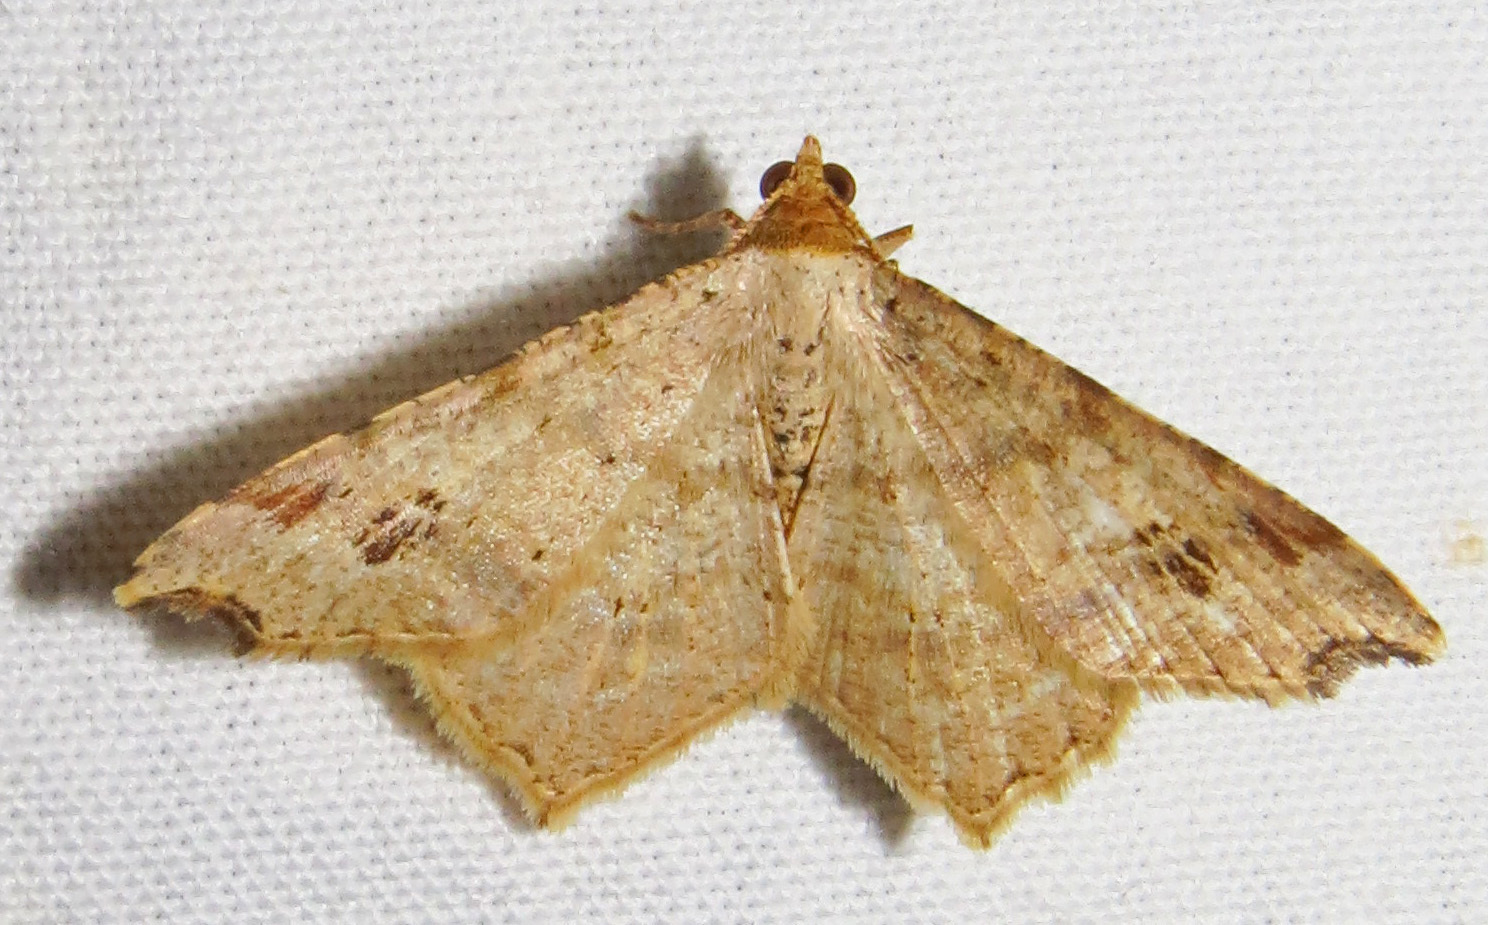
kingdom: Animalia
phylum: Arthropoda
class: Insecta
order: Lepidoptera
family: Geometridae
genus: Macaria
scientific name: Macaria promiscuata
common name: Promiscuous angle
